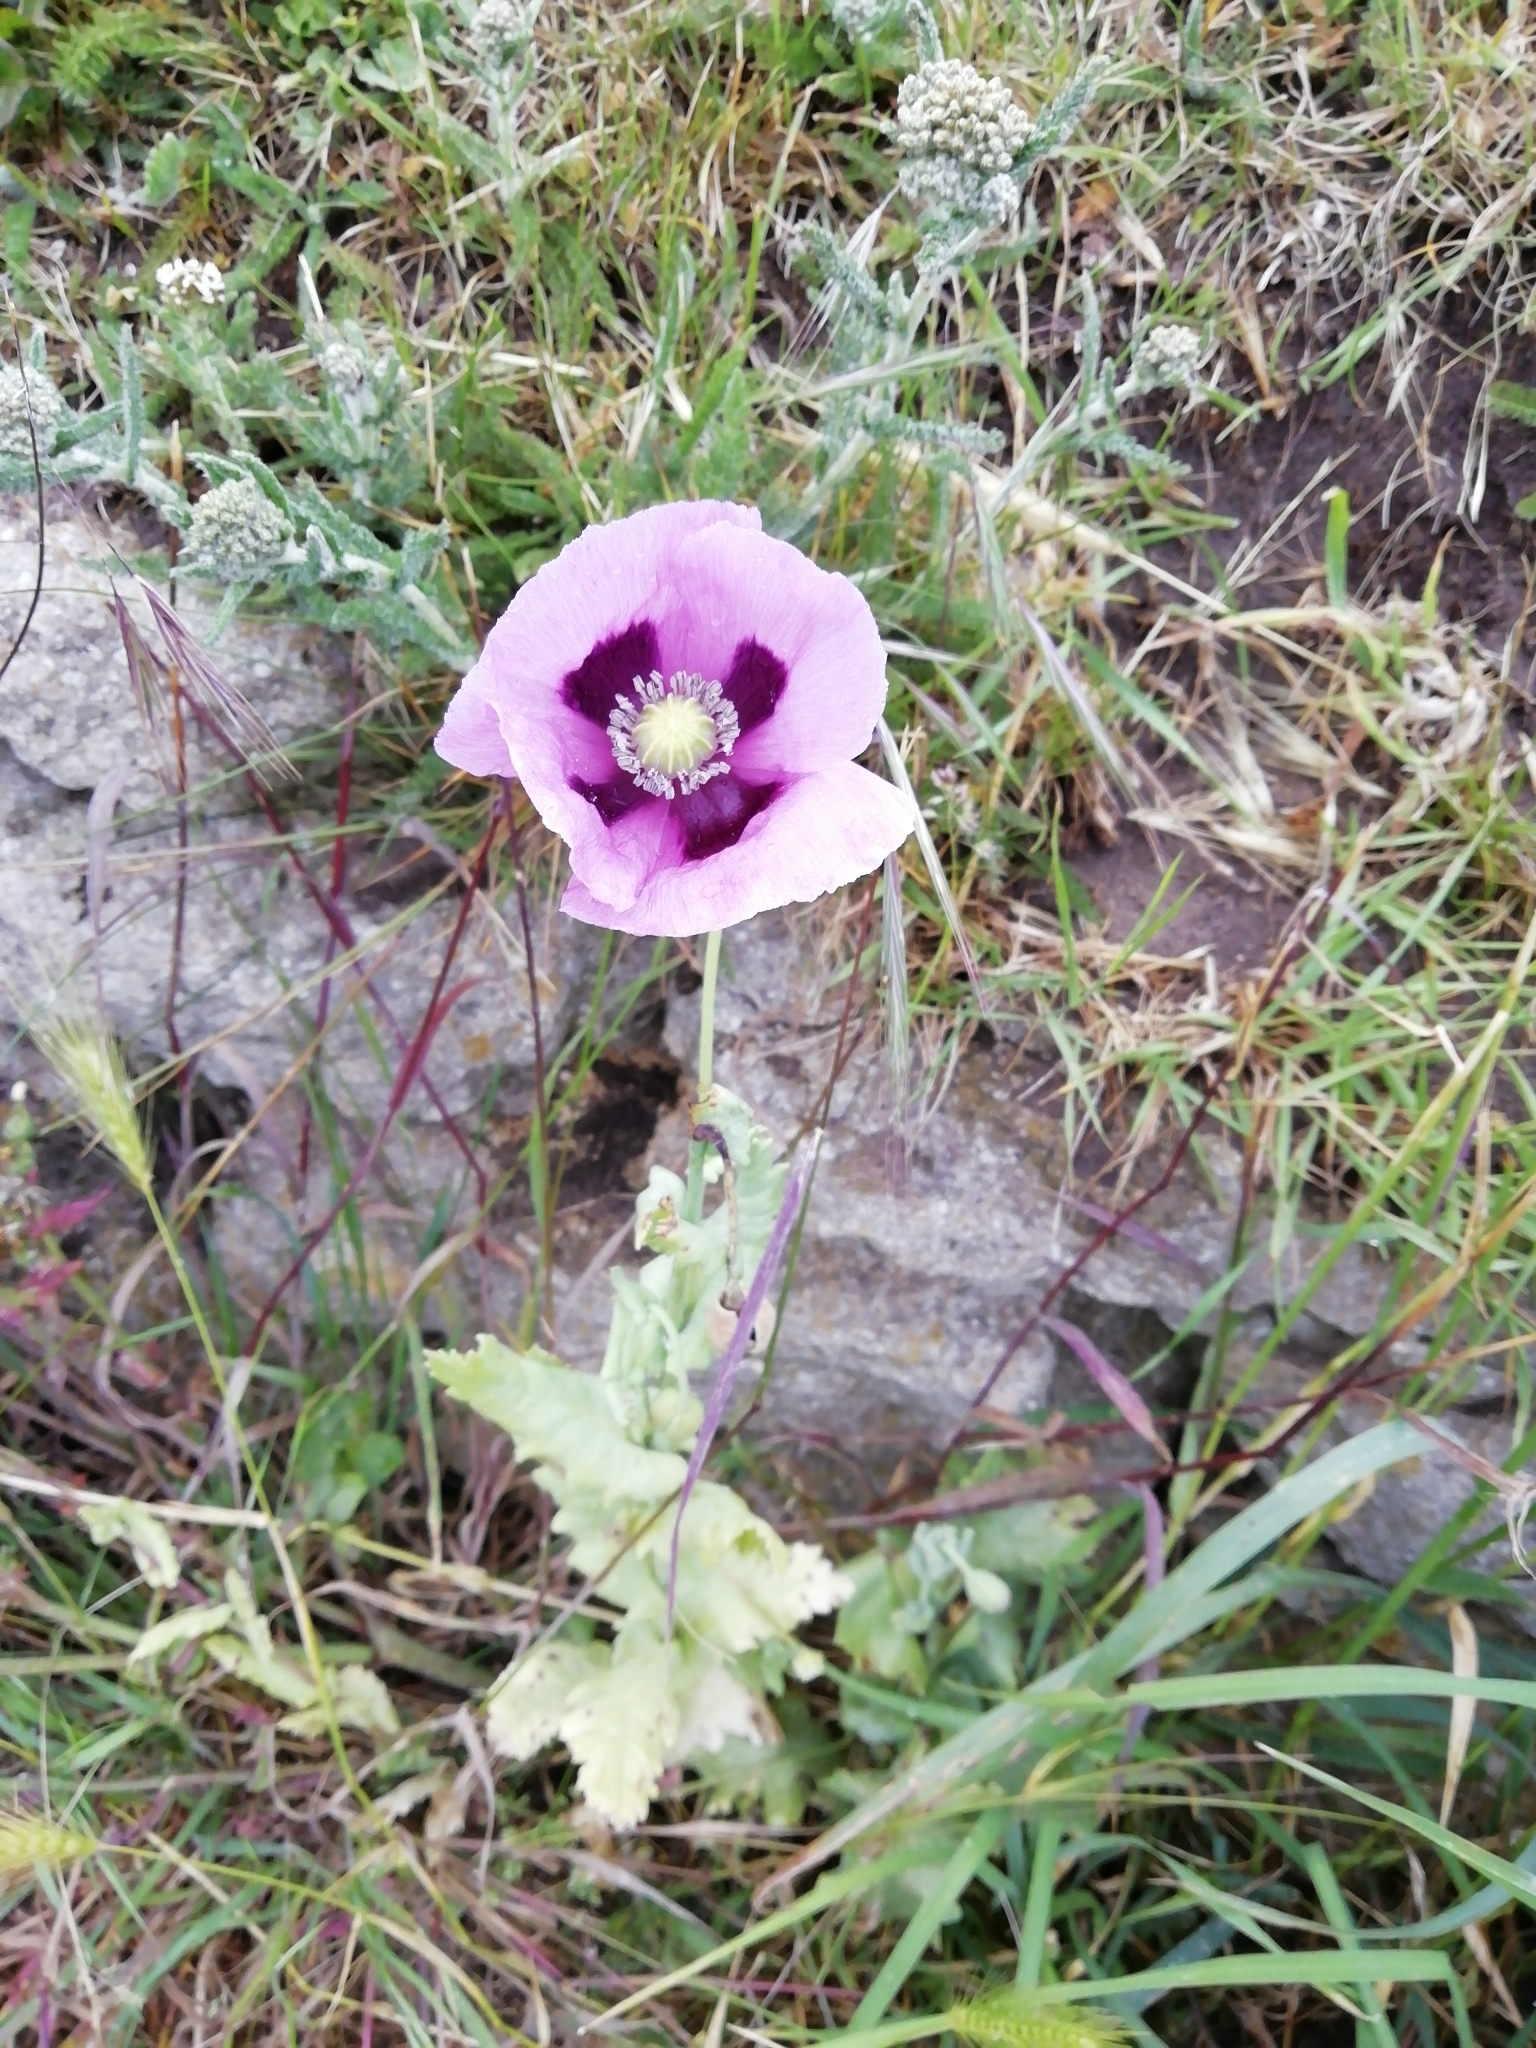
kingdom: Plantae
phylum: Tracheophyta
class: Magnoliopsida
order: Ranunculales
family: Papaveraceae
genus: Papaver
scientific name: Papaver somniferum
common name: Opium poppy
